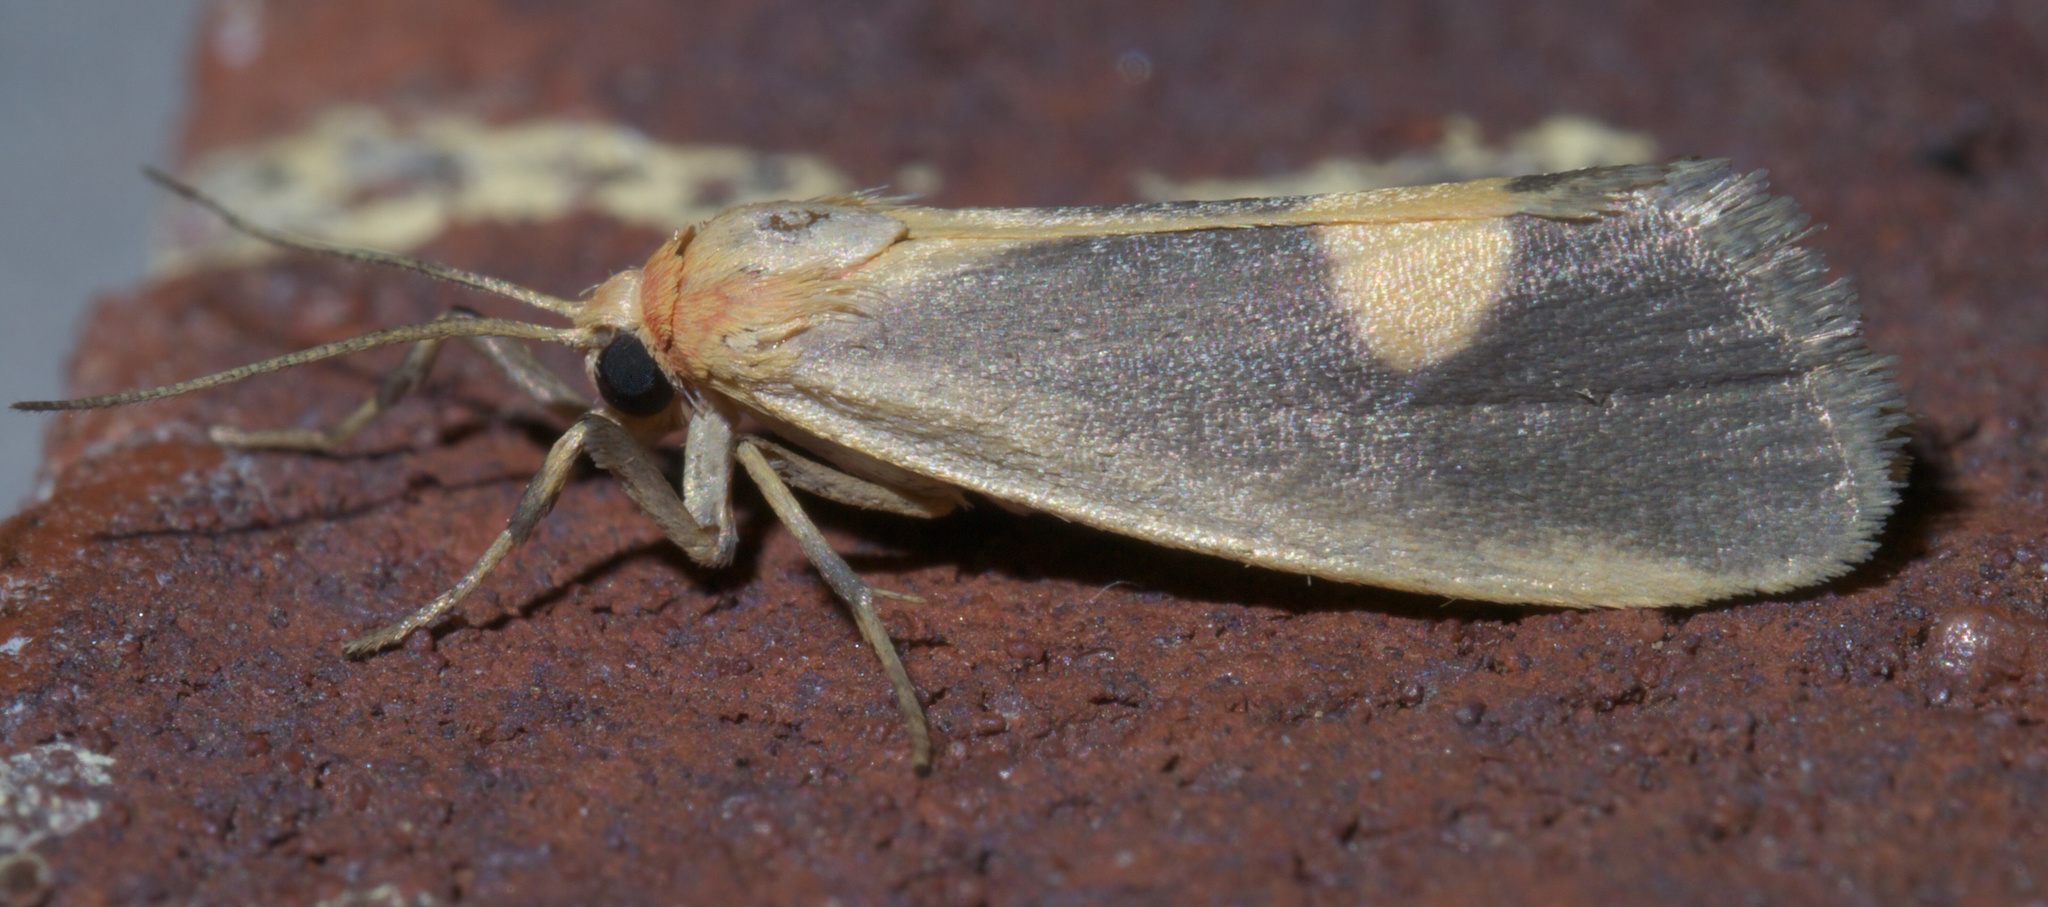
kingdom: Animalia
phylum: Arthropoda
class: Insecta
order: Lepidoptera
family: Erebidae
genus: Cisthene
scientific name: Cisthene plumbea
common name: Lead colored lichen moth
